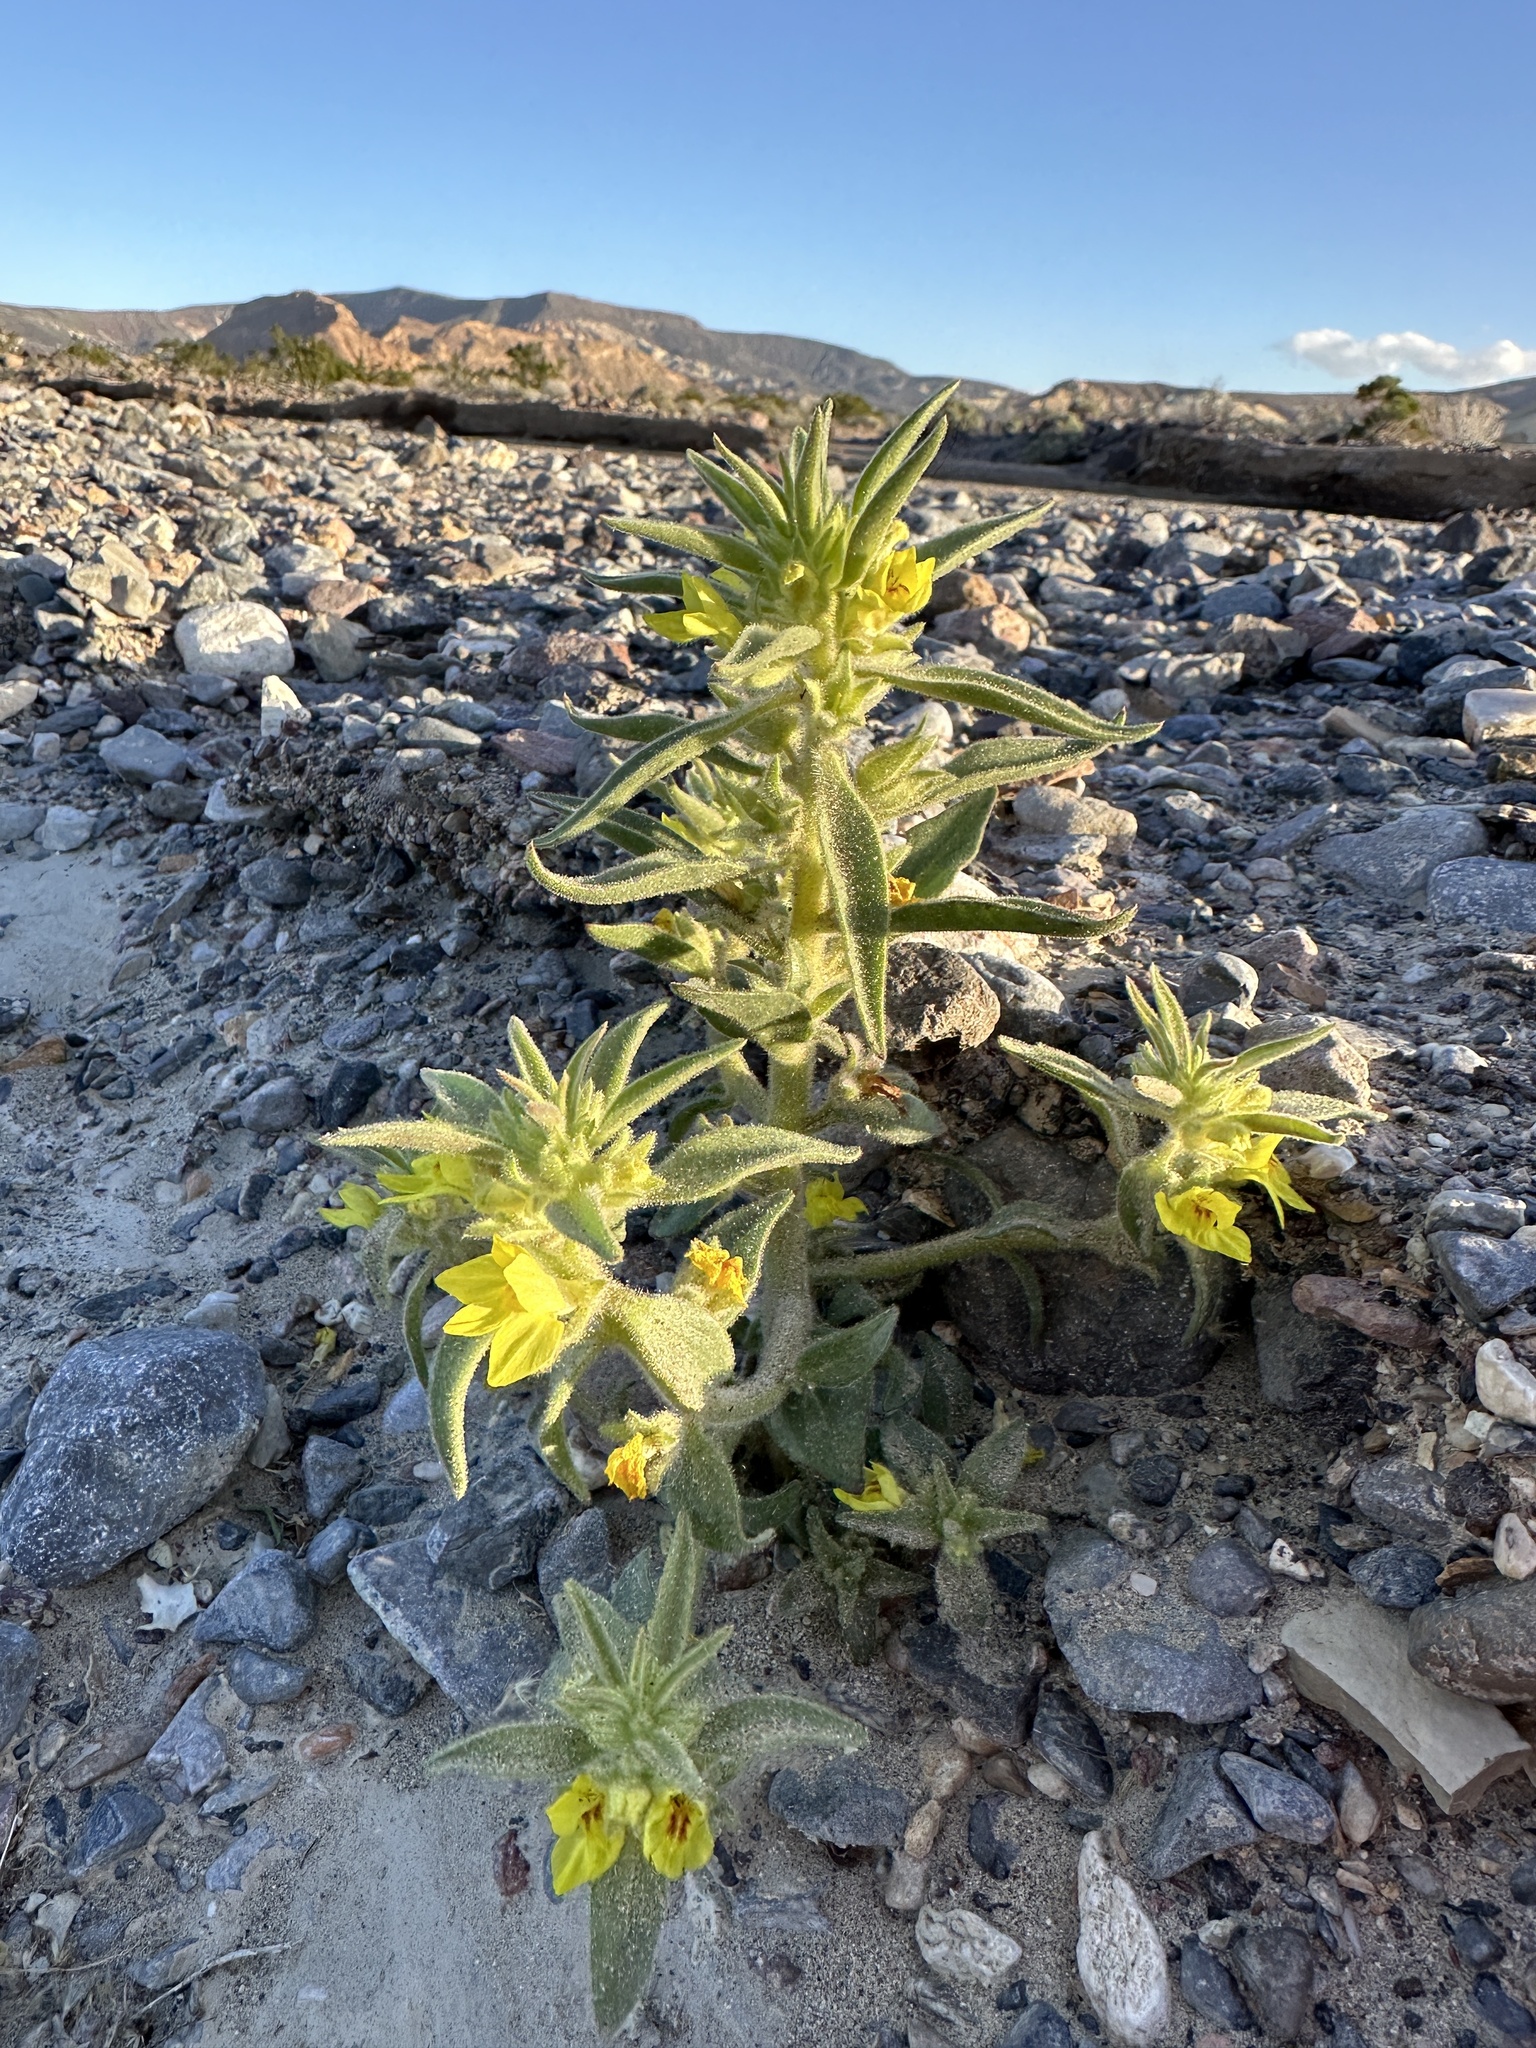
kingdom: Plantae
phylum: Tracheophyta
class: Magnoliopsida
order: Lamiales
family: Plantaginaceae
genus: Mohavea
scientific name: Mohavea breviflora
